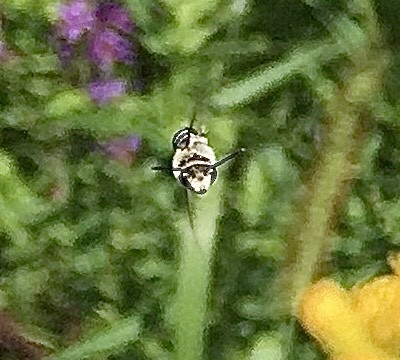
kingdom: Animalia
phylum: Arthropoda
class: Insecta
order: Hymenoptera
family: Colletidae
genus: Colletes
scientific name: Colletes
